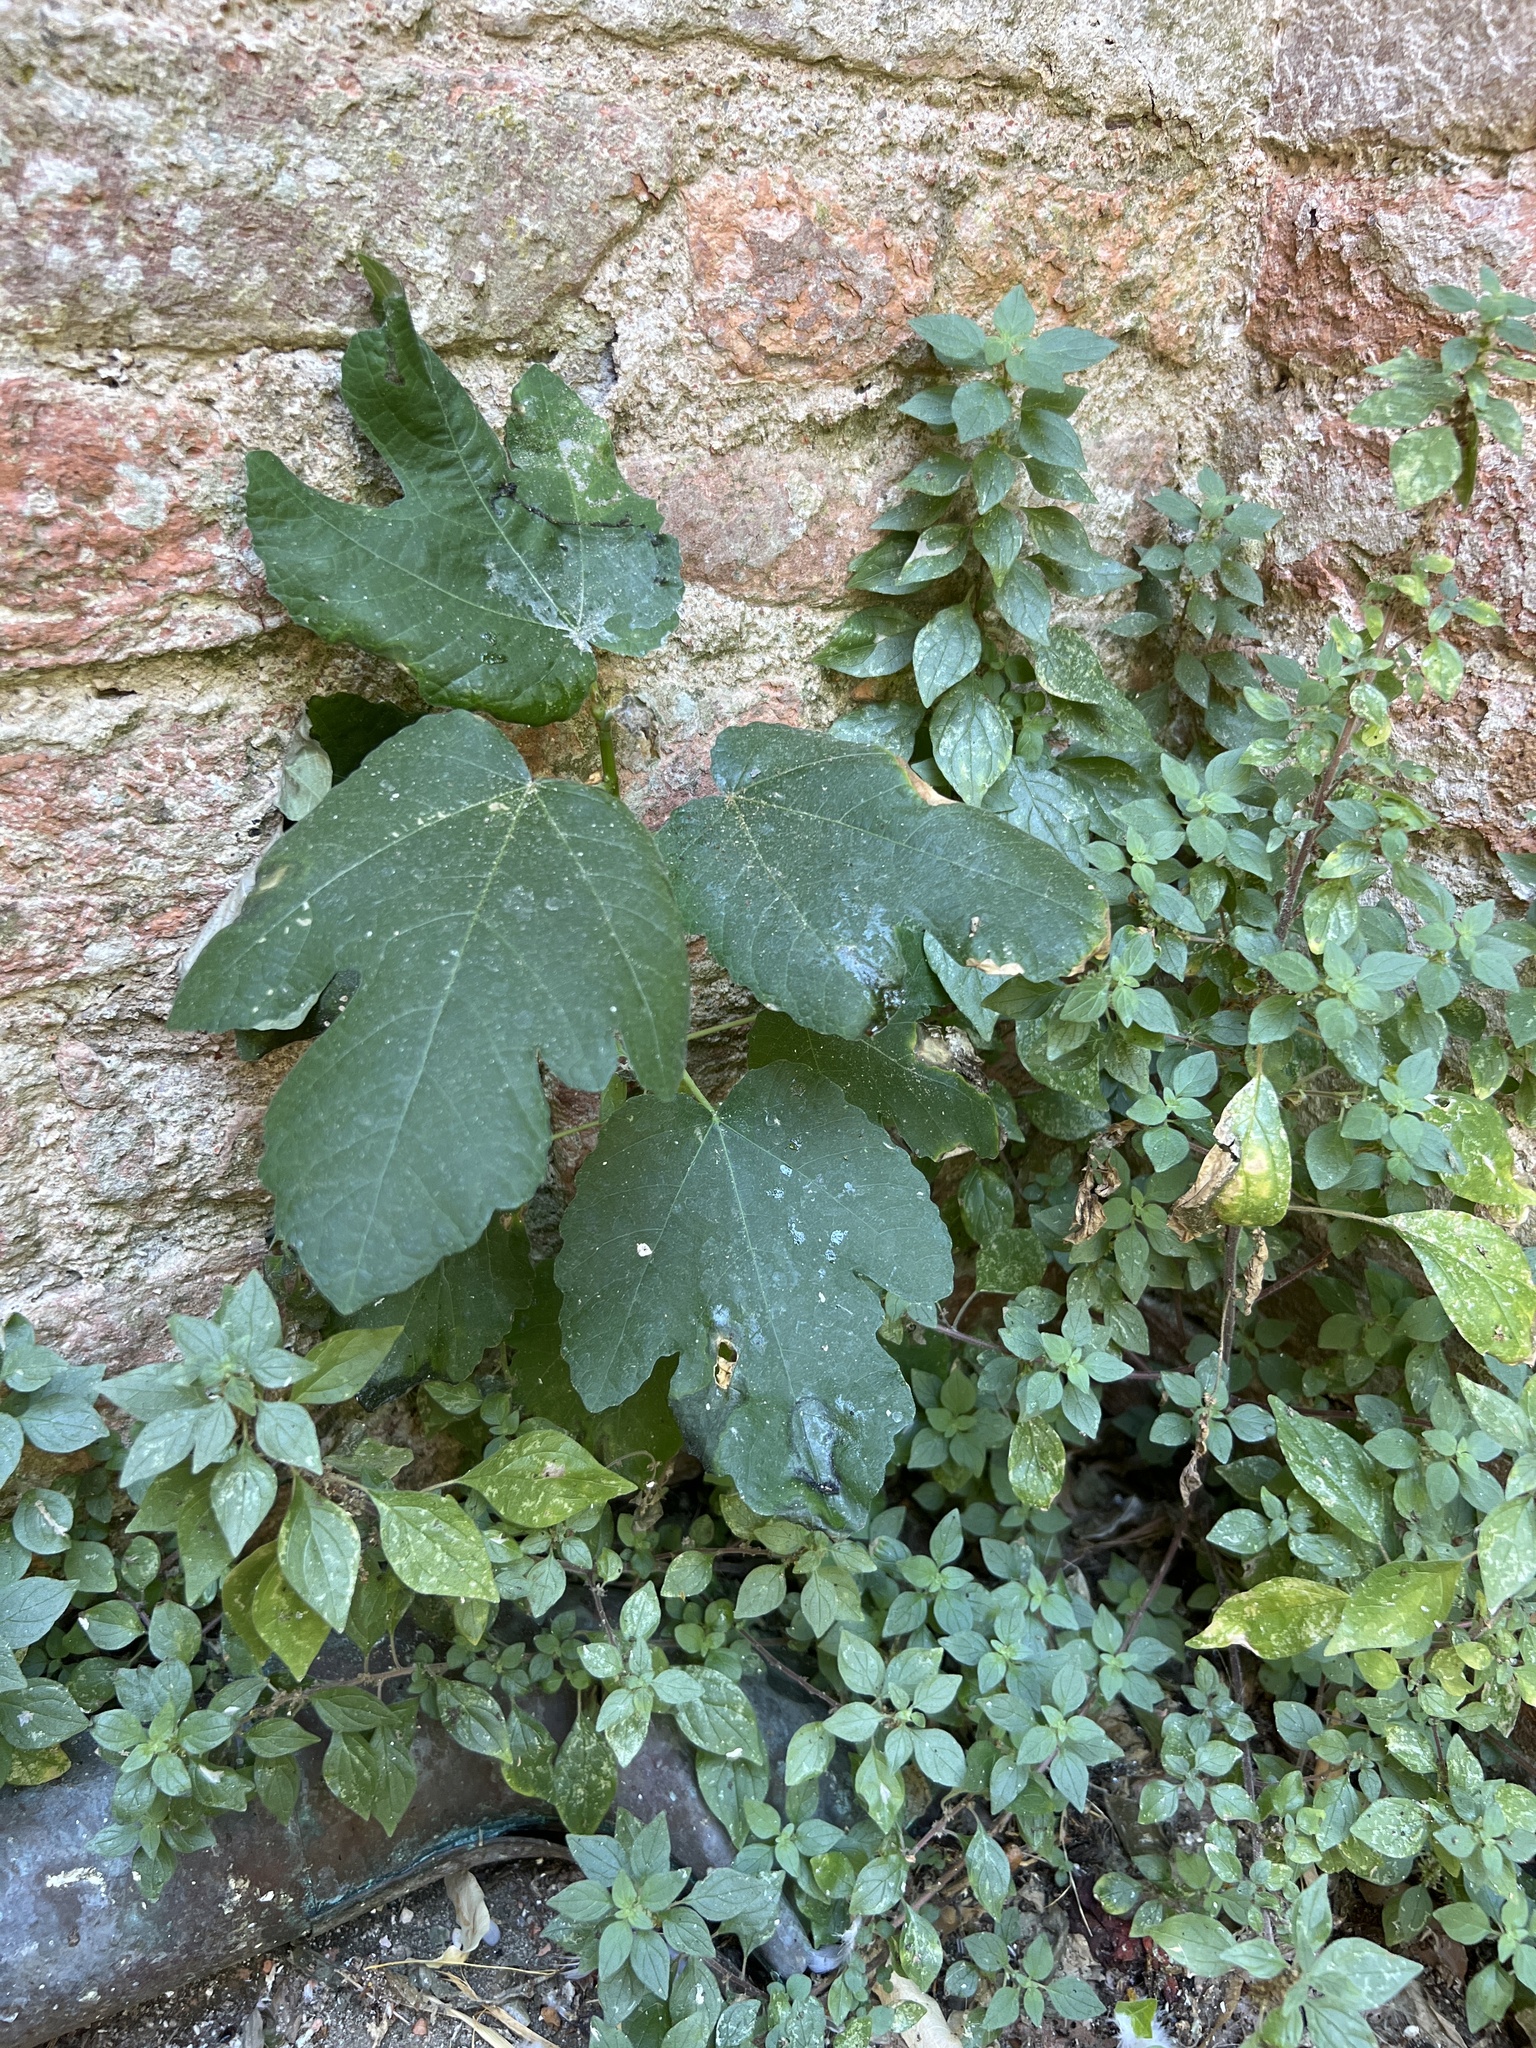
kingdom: Plantae
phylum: Tracheophyta
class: Magnoliopsida
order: Rosales
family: Moraceae
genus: Ficus
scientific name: Ficus carica
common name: Fig
